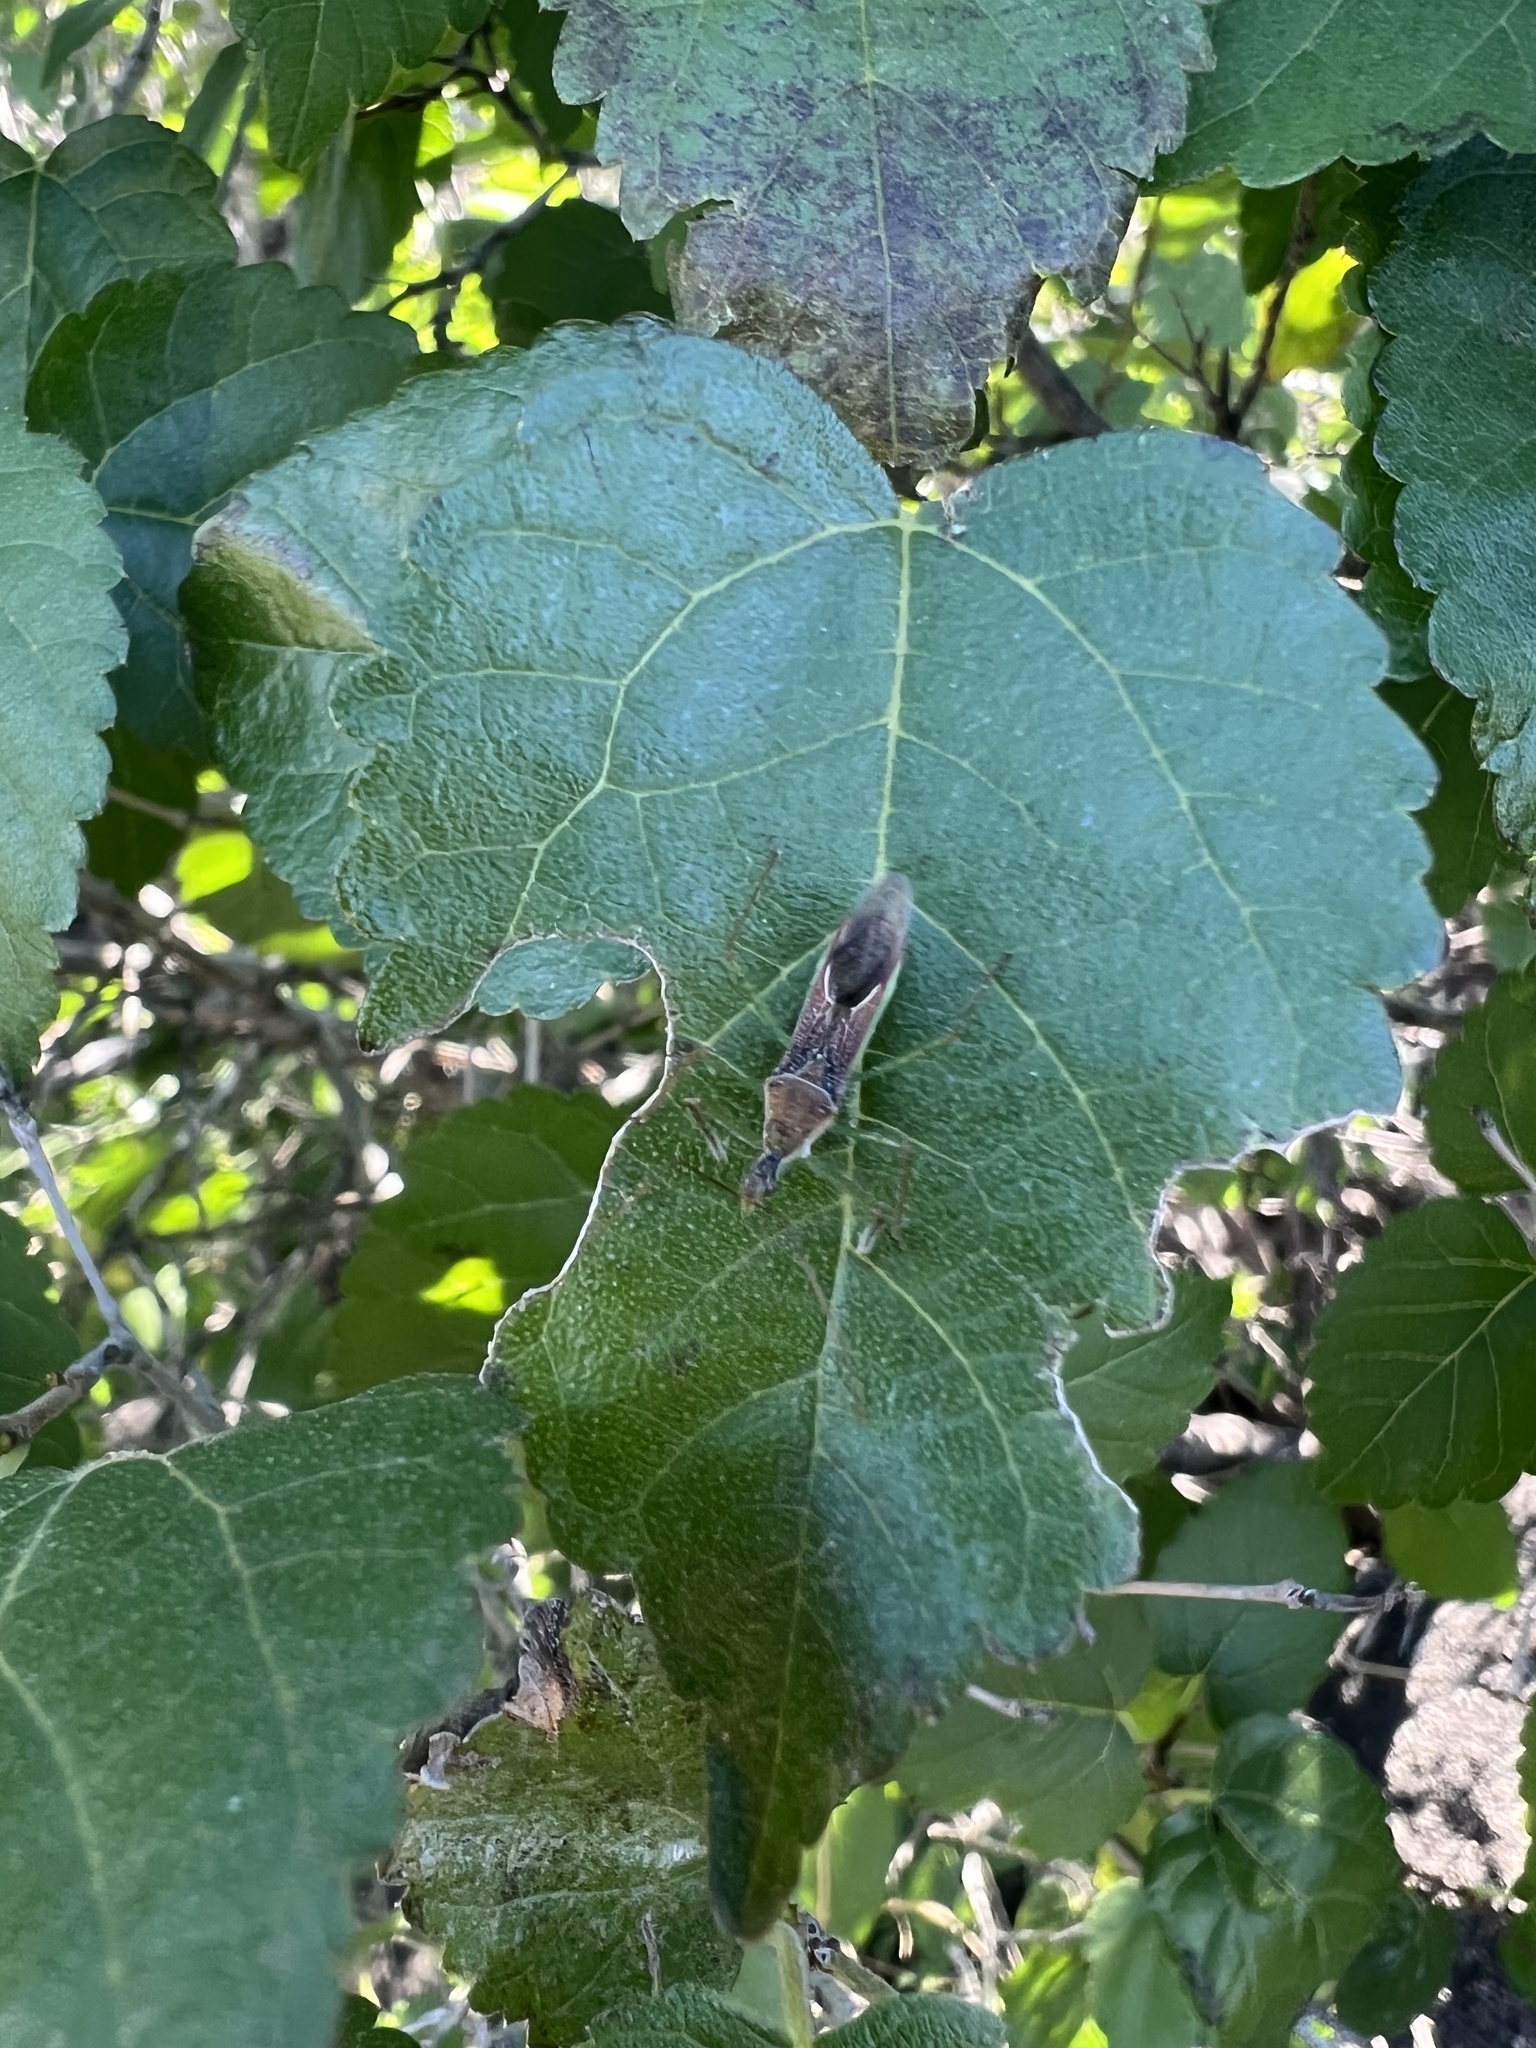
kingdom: Animalia
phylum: Arthropoda
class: Insecta
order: Hemiptera
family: Reduviidae
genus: Zelus
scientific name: Zelus renardii
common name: Assassin bug
